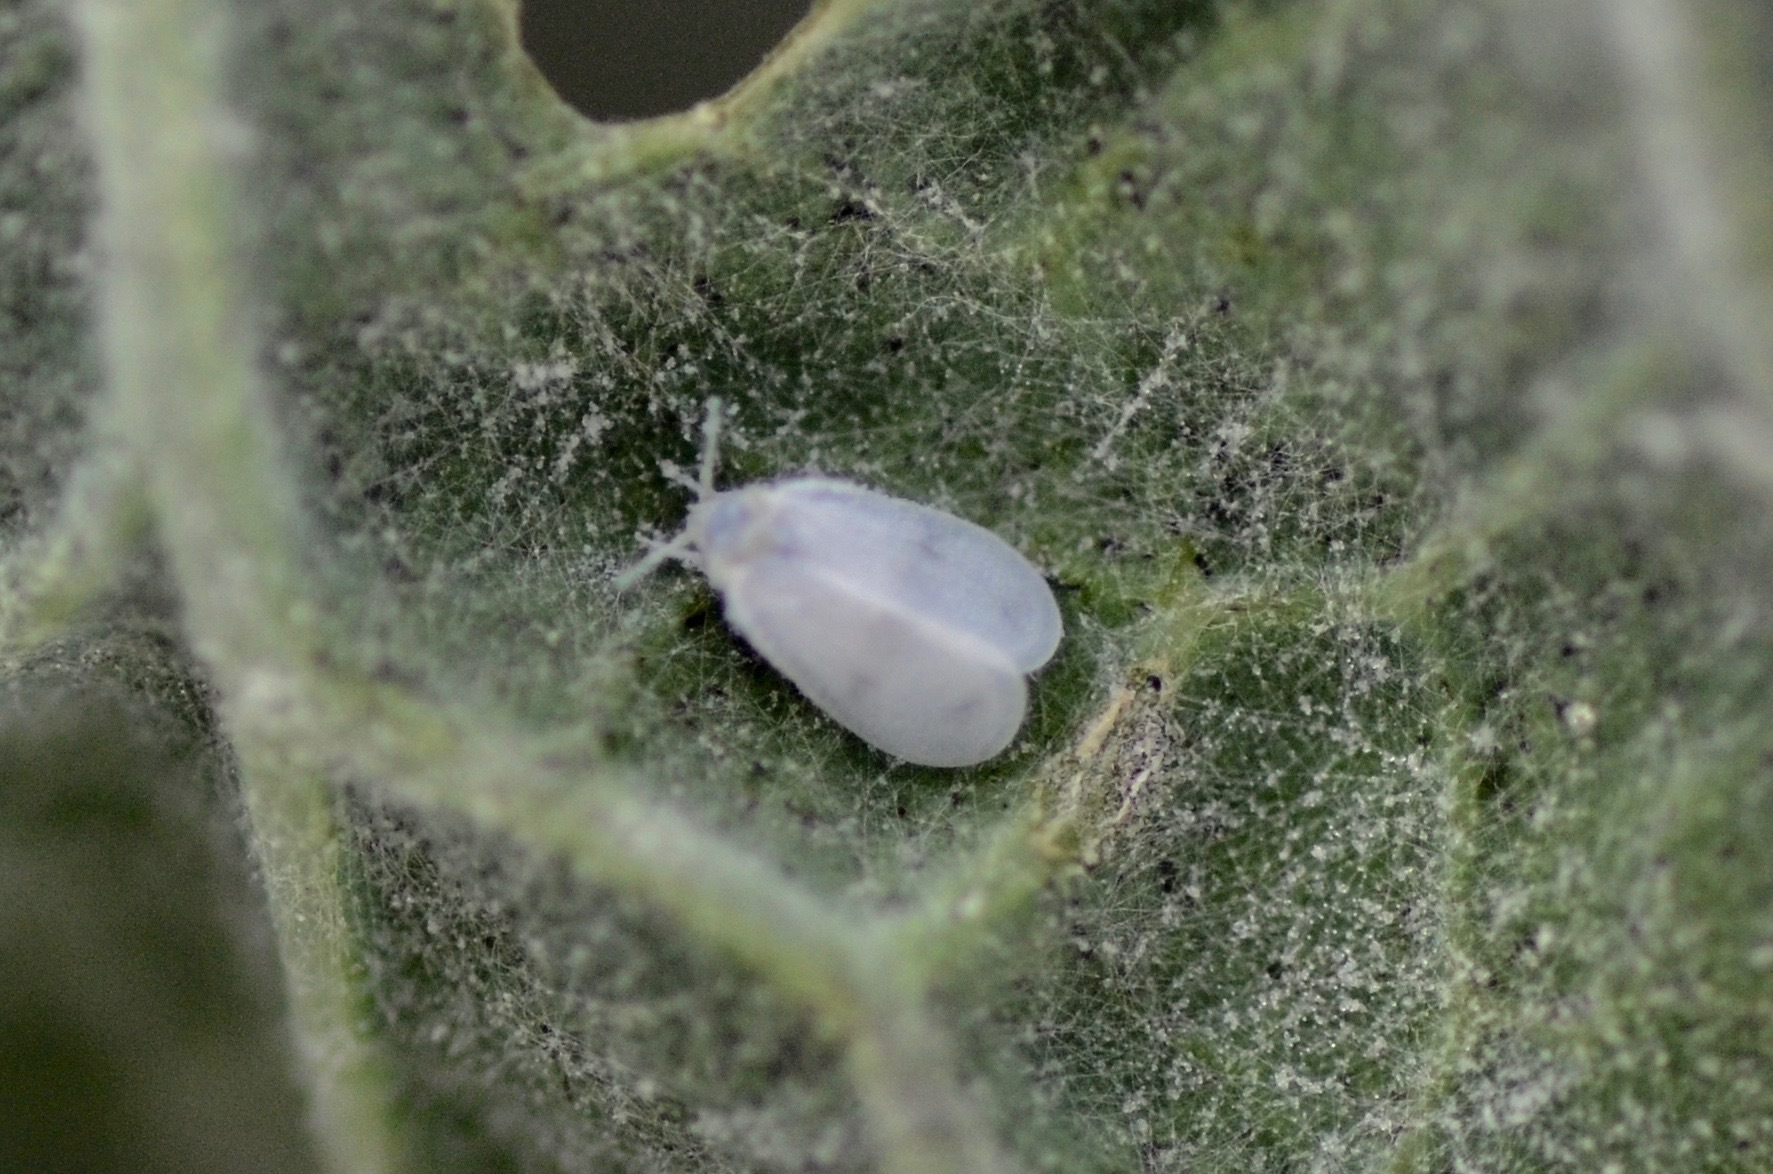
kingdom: Animalia
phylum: Arthropoda
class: Insecta
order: Hemiptera
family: Aleyrodidae
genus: Aleyrodes
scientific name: Aleyrodes proletella
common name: Cabbage whitefly
